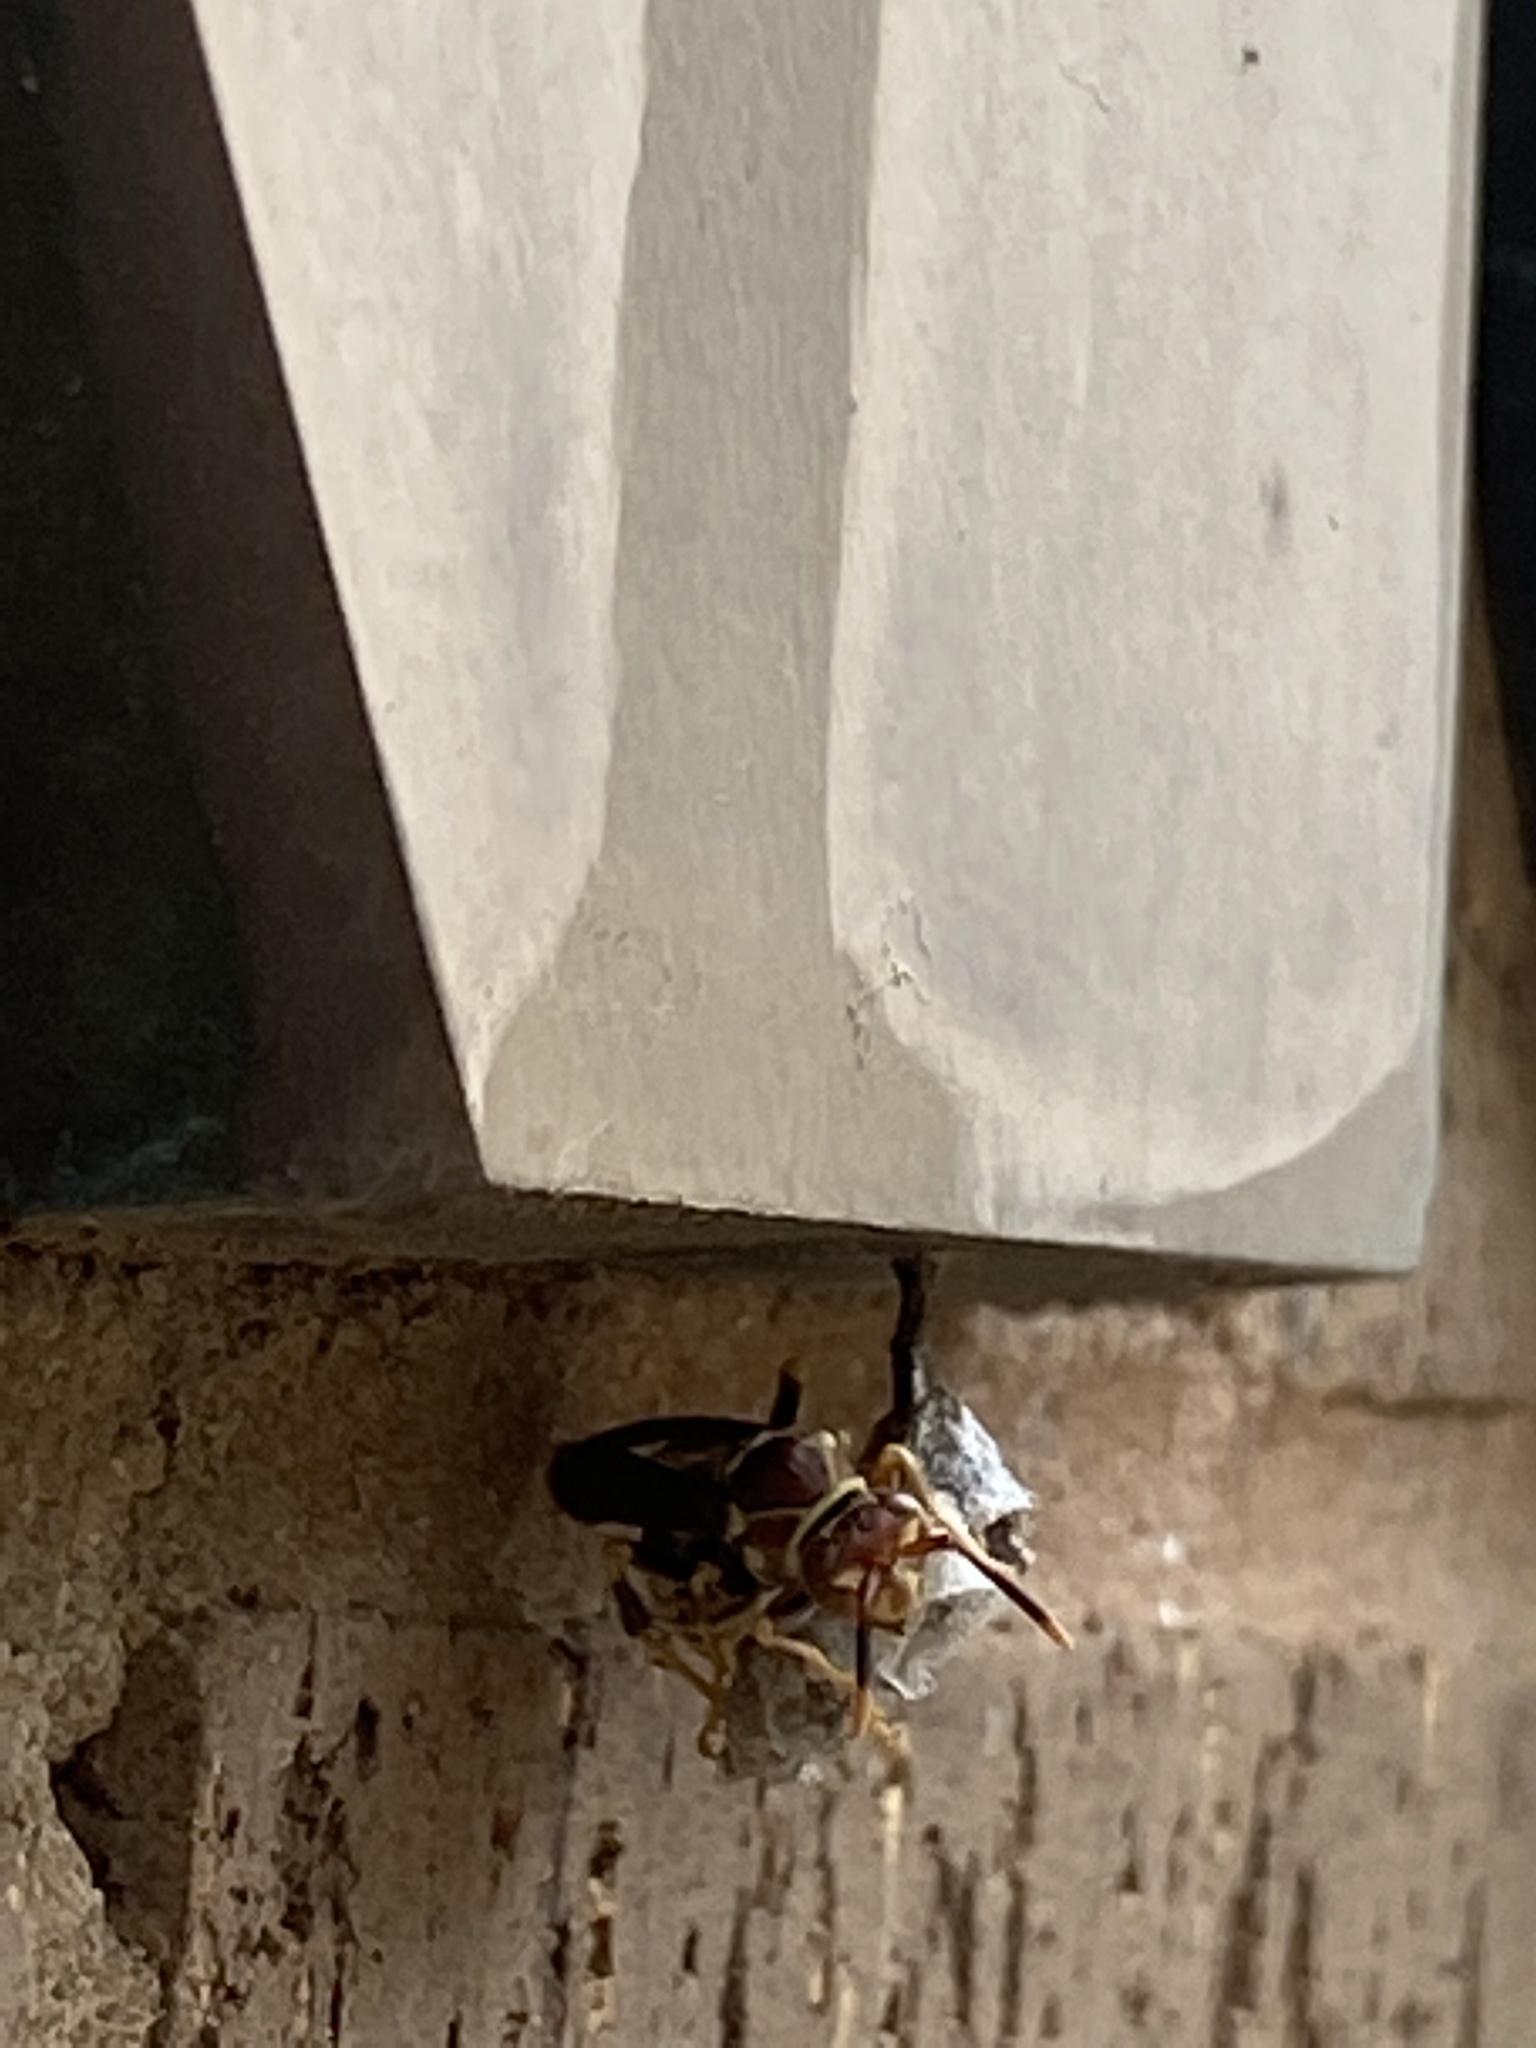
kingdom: Animalia
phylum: Arthropoda
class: Insecta
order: Hymenoptera
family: Eumenidae
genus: Polistes
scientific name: Polistes exclamans
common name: Paper wasp
